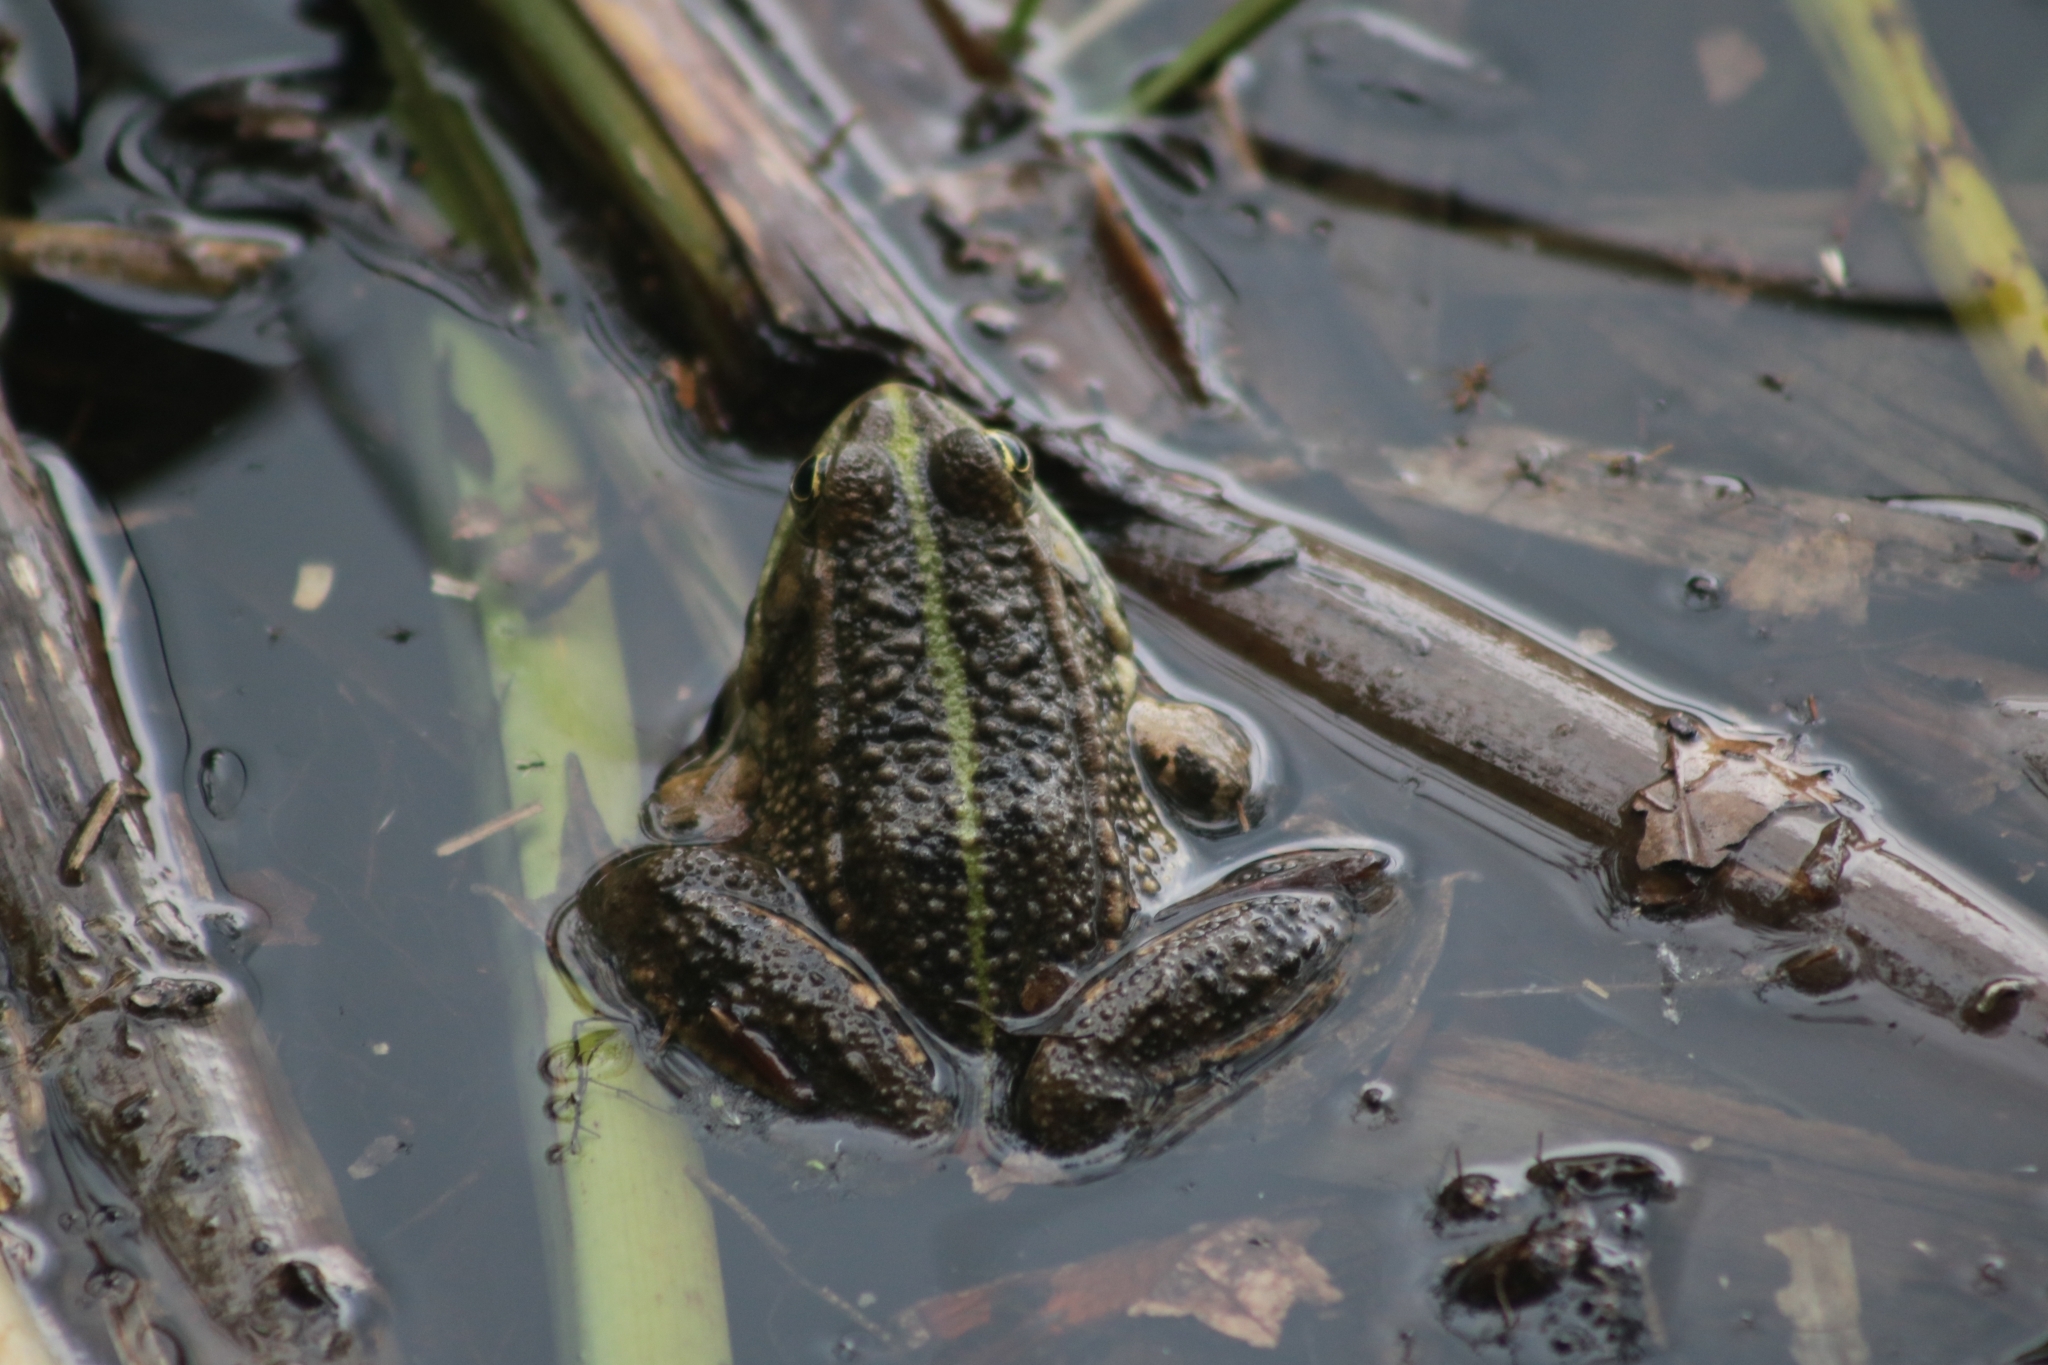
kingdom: Animalia
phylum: Chordata
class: Amphibia
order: Anura
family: Ranidae
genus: Pelophylax
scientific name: Pelophylax ridibundus
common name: Marsh frog
